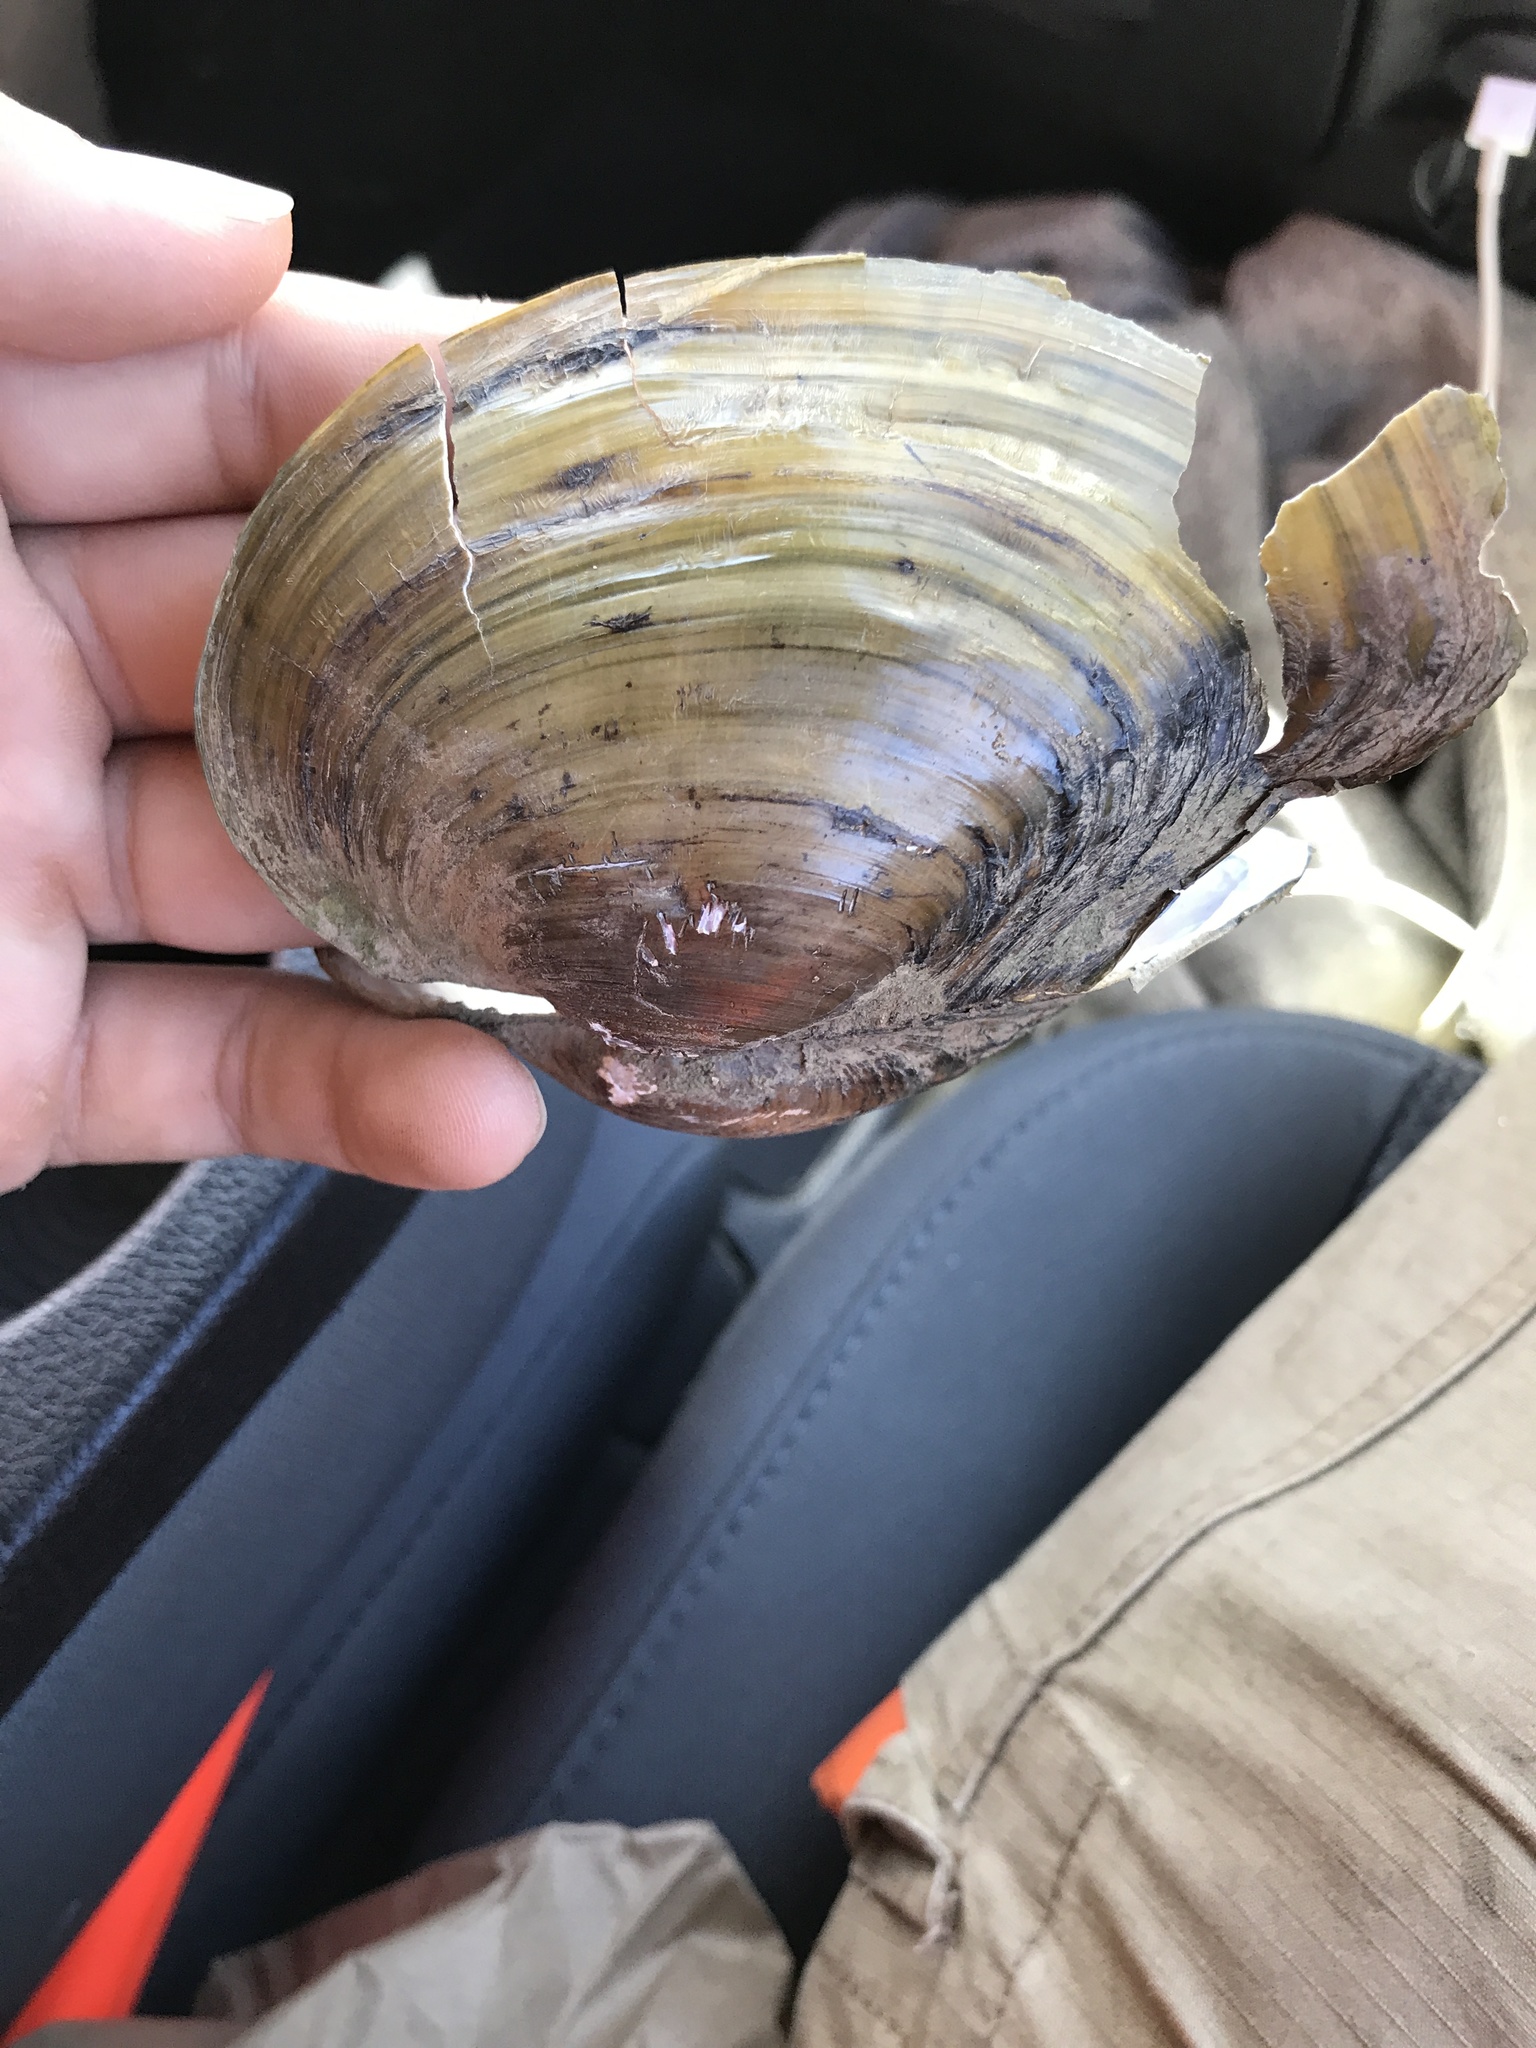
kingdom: Animalia
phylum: Mollusca
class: Bivalvia
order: Unionida
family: Unionidae
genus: Pyganodon
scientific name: Pyganodon grandis
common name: Giant floater
